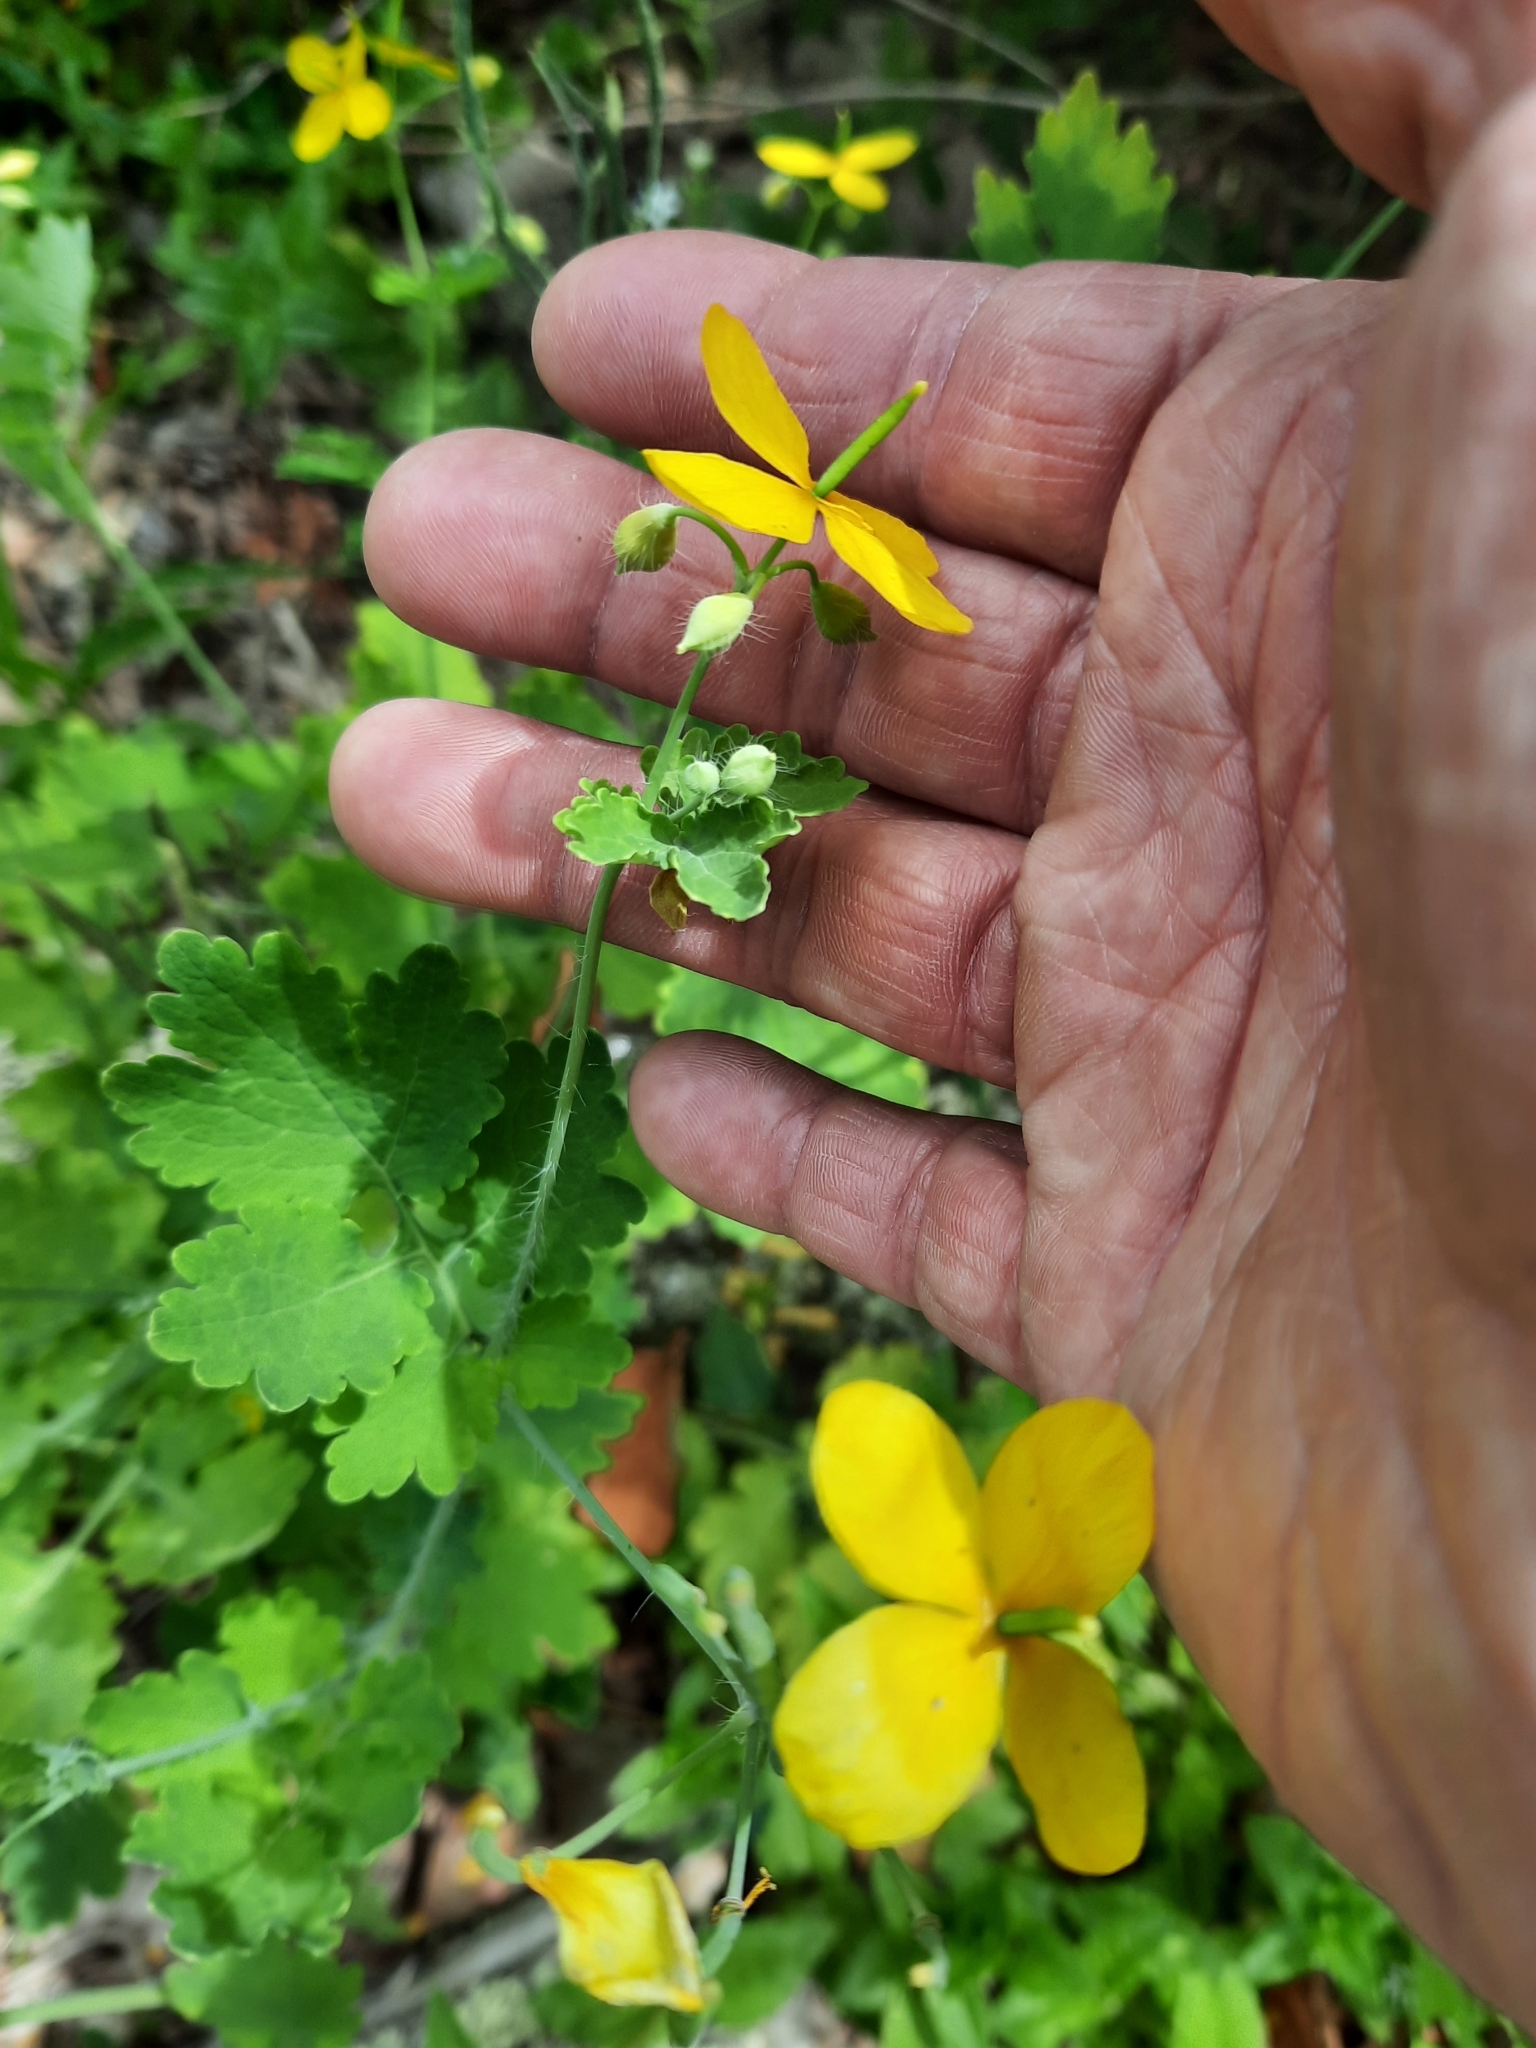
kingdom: Plantae
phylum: Tracheophyta
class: Magnoliopsida
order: Ranunculales
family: Papaveraceae
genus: Chelidonium
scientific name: Chelidonium majus
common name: Greater celandine
